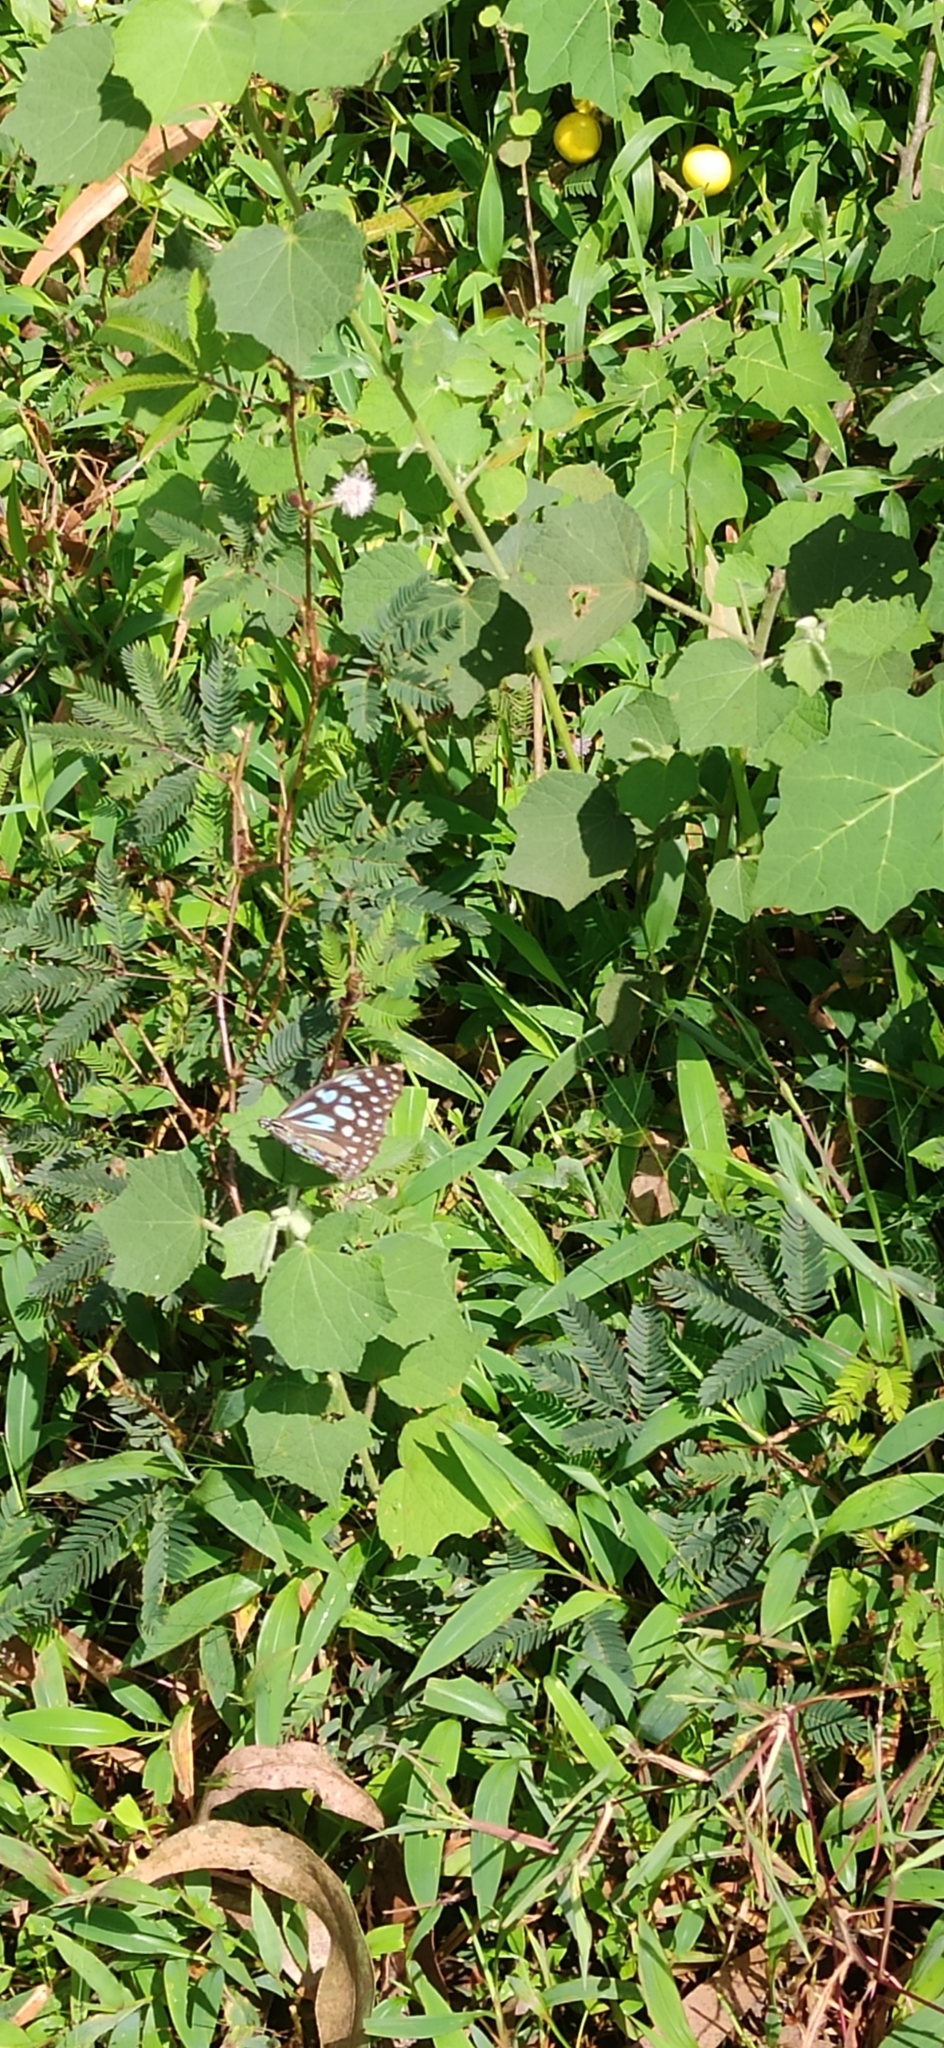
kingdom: Animalia
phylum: Arthropoda
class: Insecta
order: Lepidoptera
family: Nymphalidae
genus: Tirumala
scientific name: Tirumala limniace
